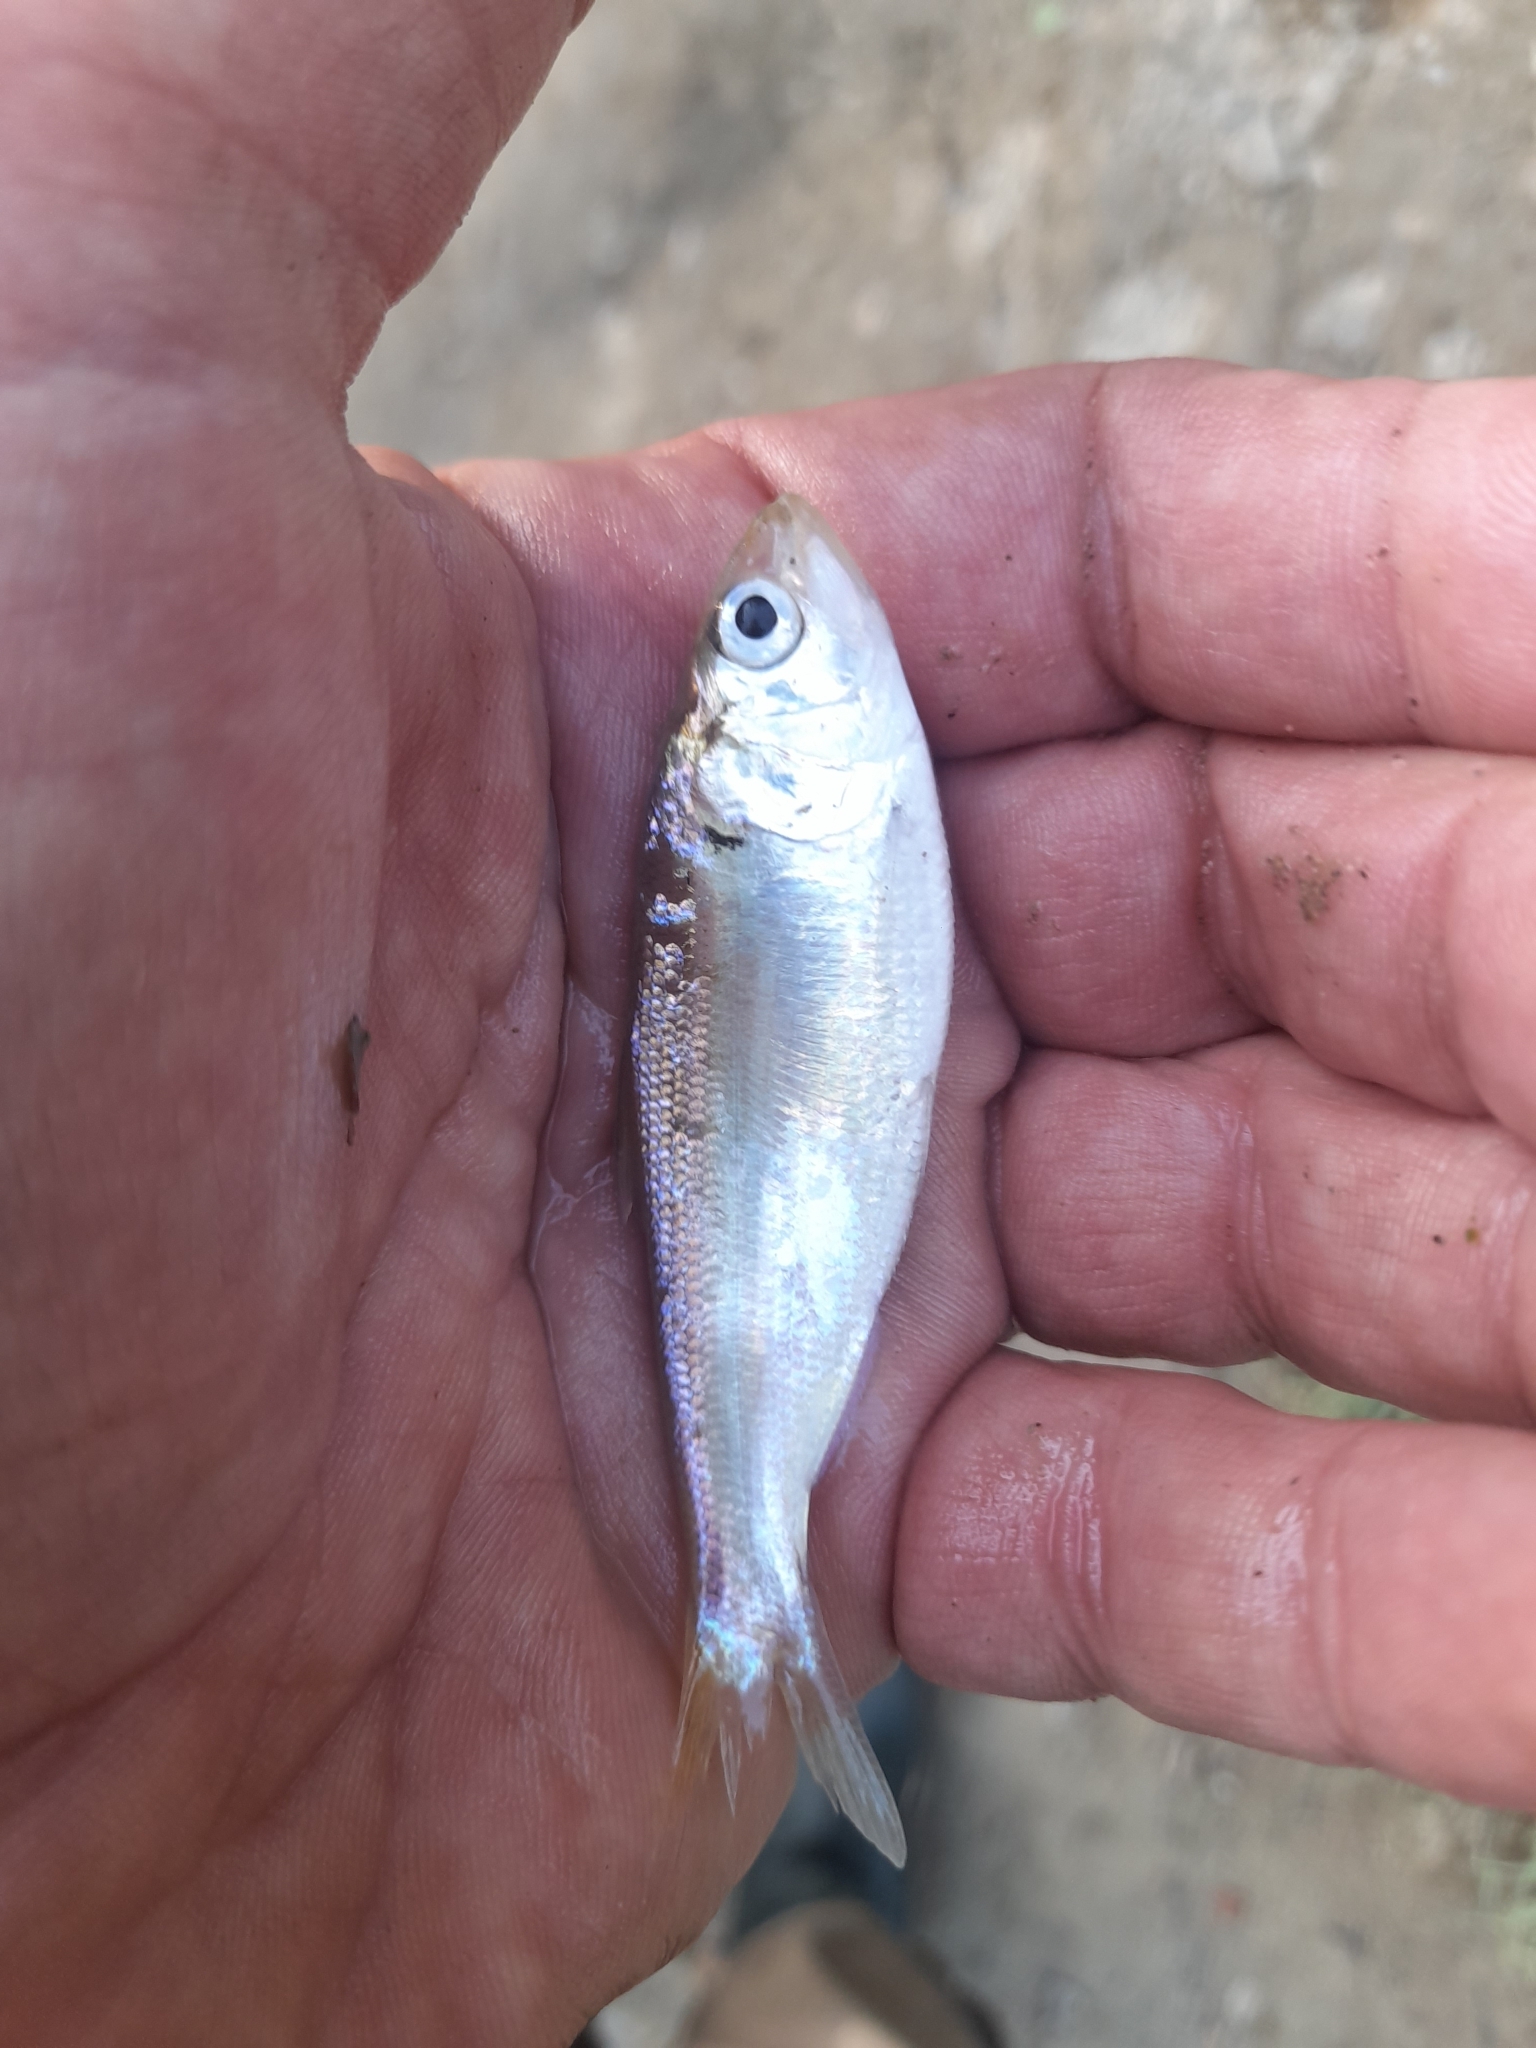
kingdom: Animalia
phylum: Chordata
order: Clupeiformes
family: Clupeidae
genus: Alosa
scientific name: Alosa fallax
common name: Twaite shad
